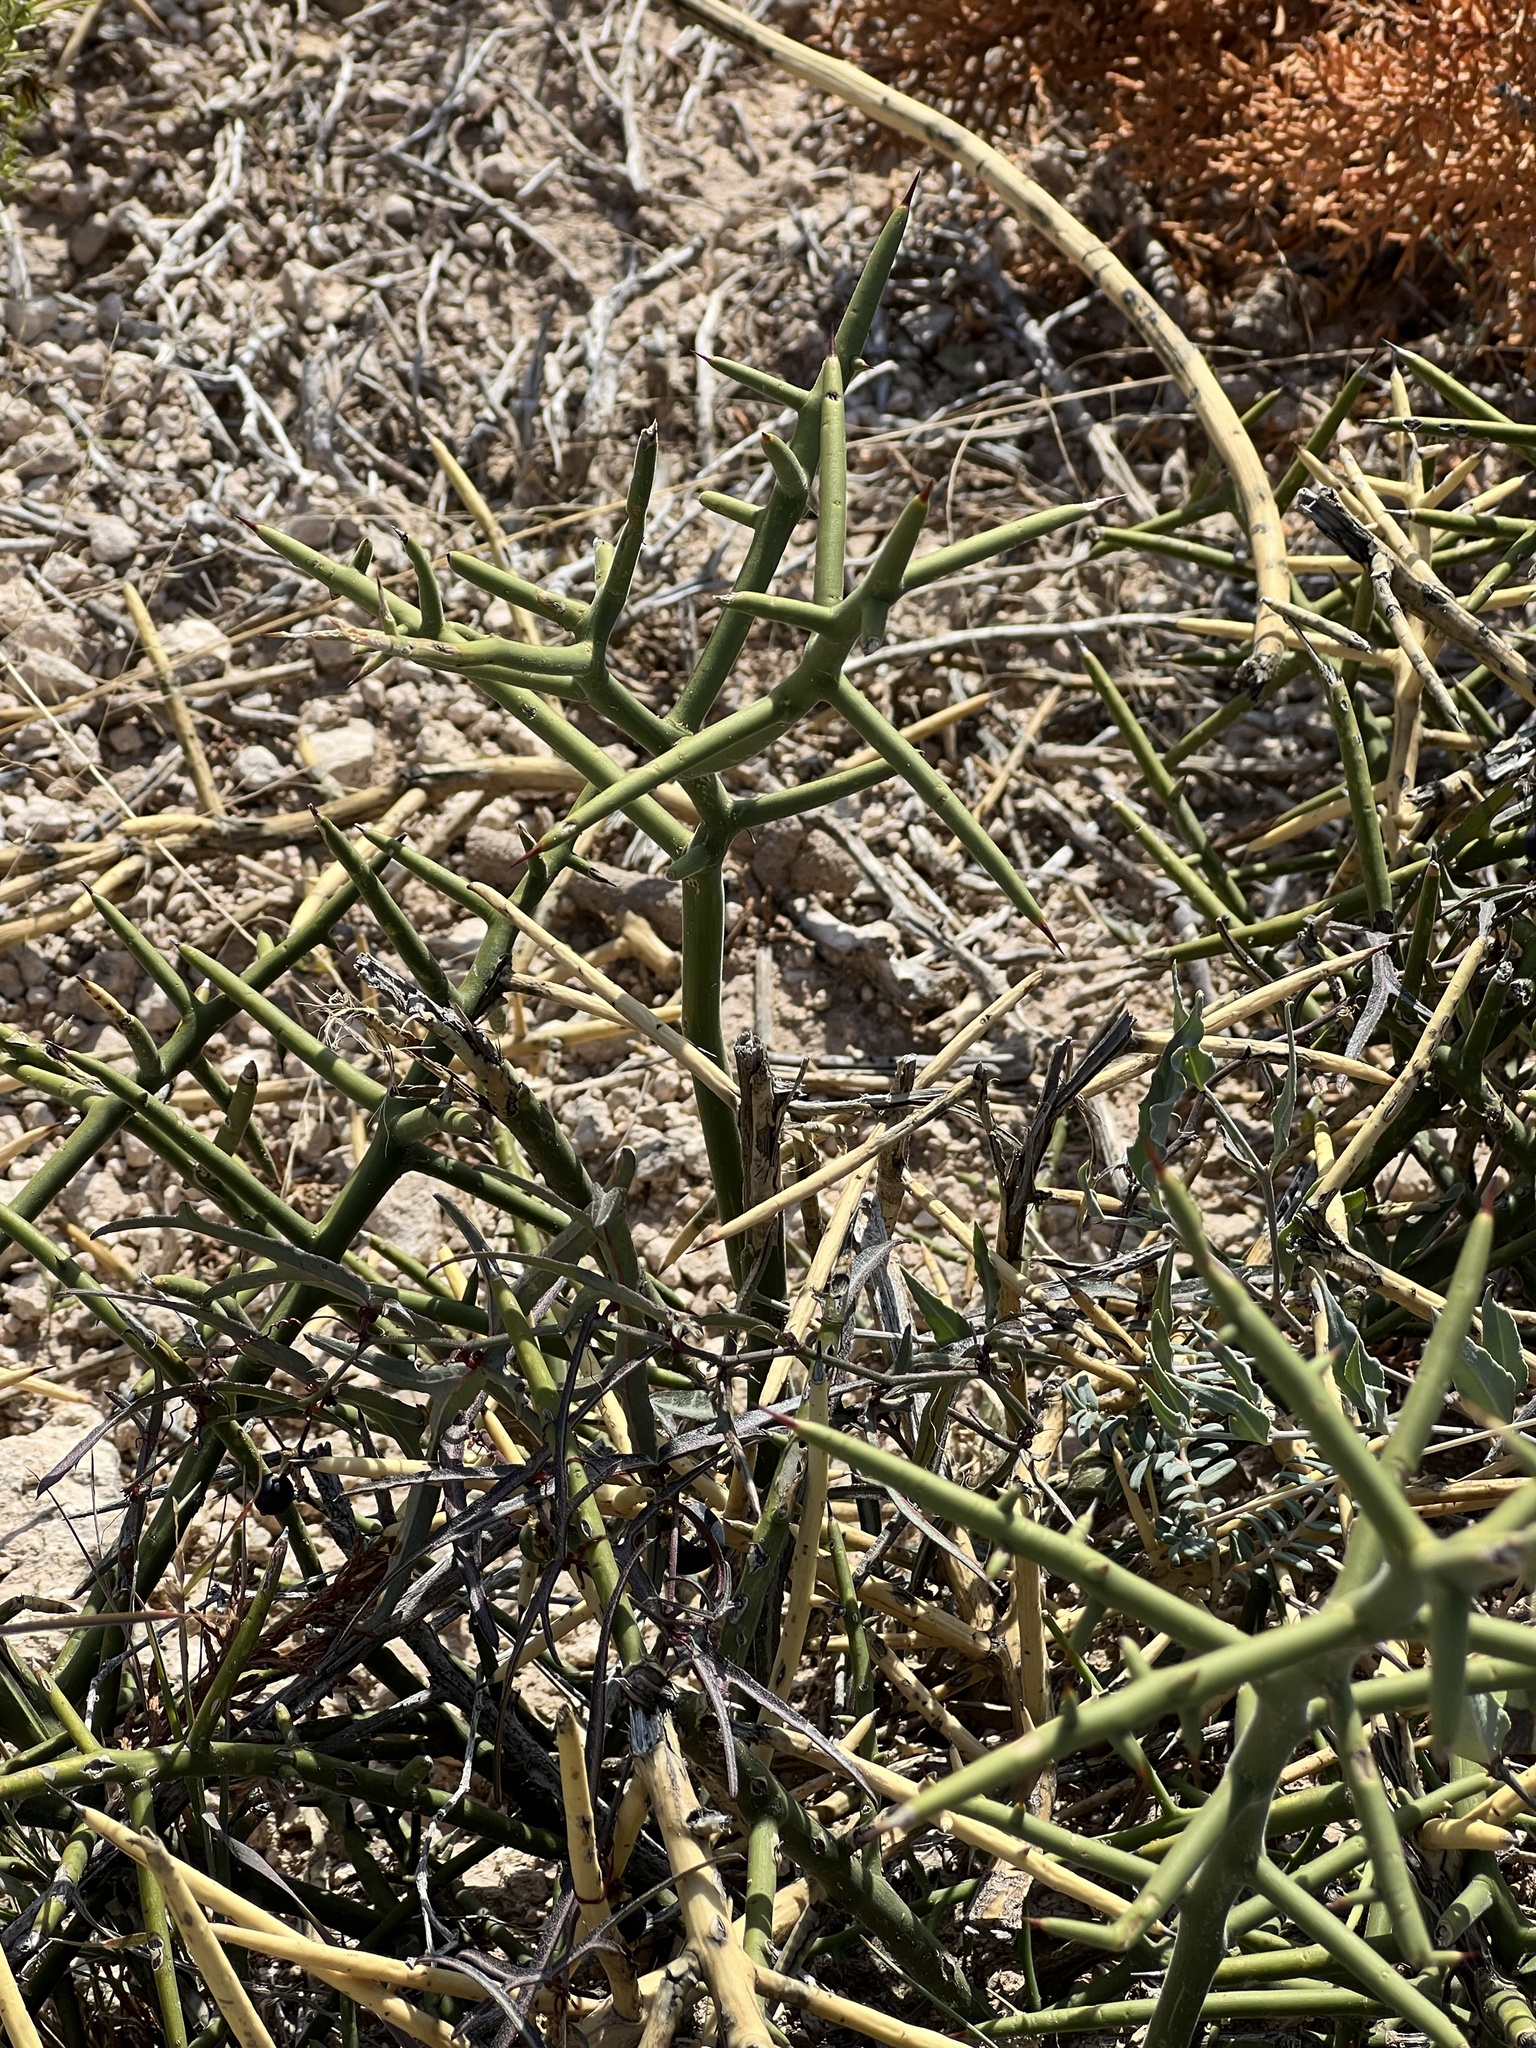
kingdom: Plantae
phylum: Tracheophyta
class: Magnoliopsida
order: Brassicales
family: Koeberliniaceae
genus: Koeberlinia
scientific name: Koeberlinia spinosa
